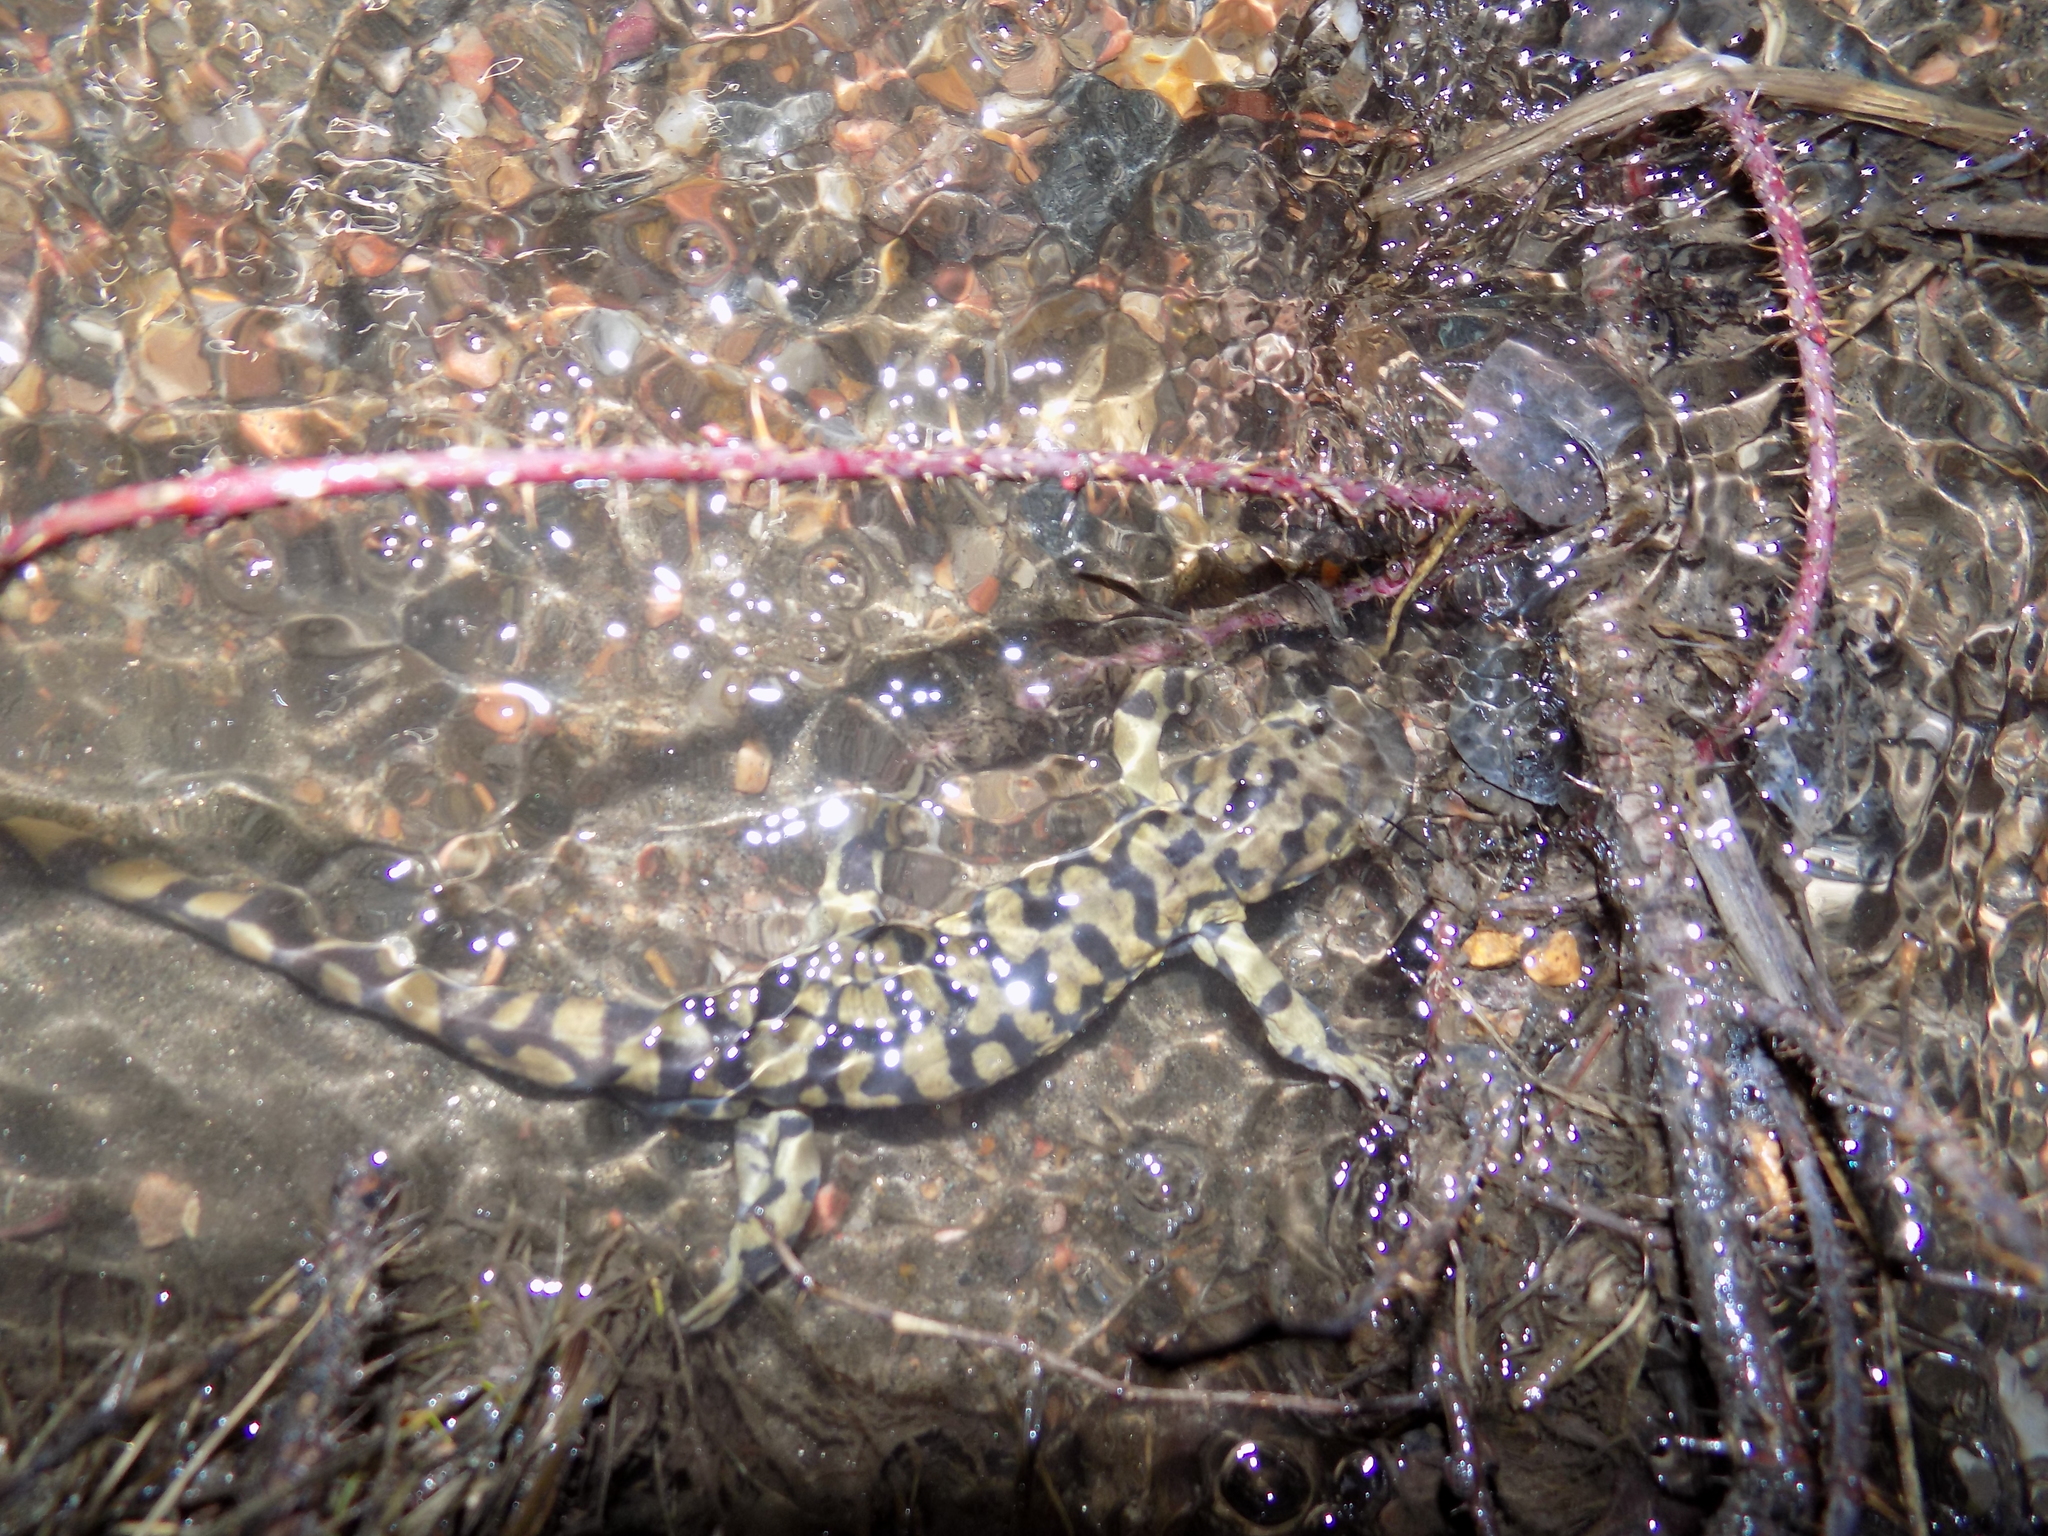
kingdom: Animalia
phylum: Chordata
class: Amphibia
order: Caudata
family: Ambystomatidae
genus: Ambystoma
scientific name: Ambystoma mavortium
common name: Western tiger salamander
